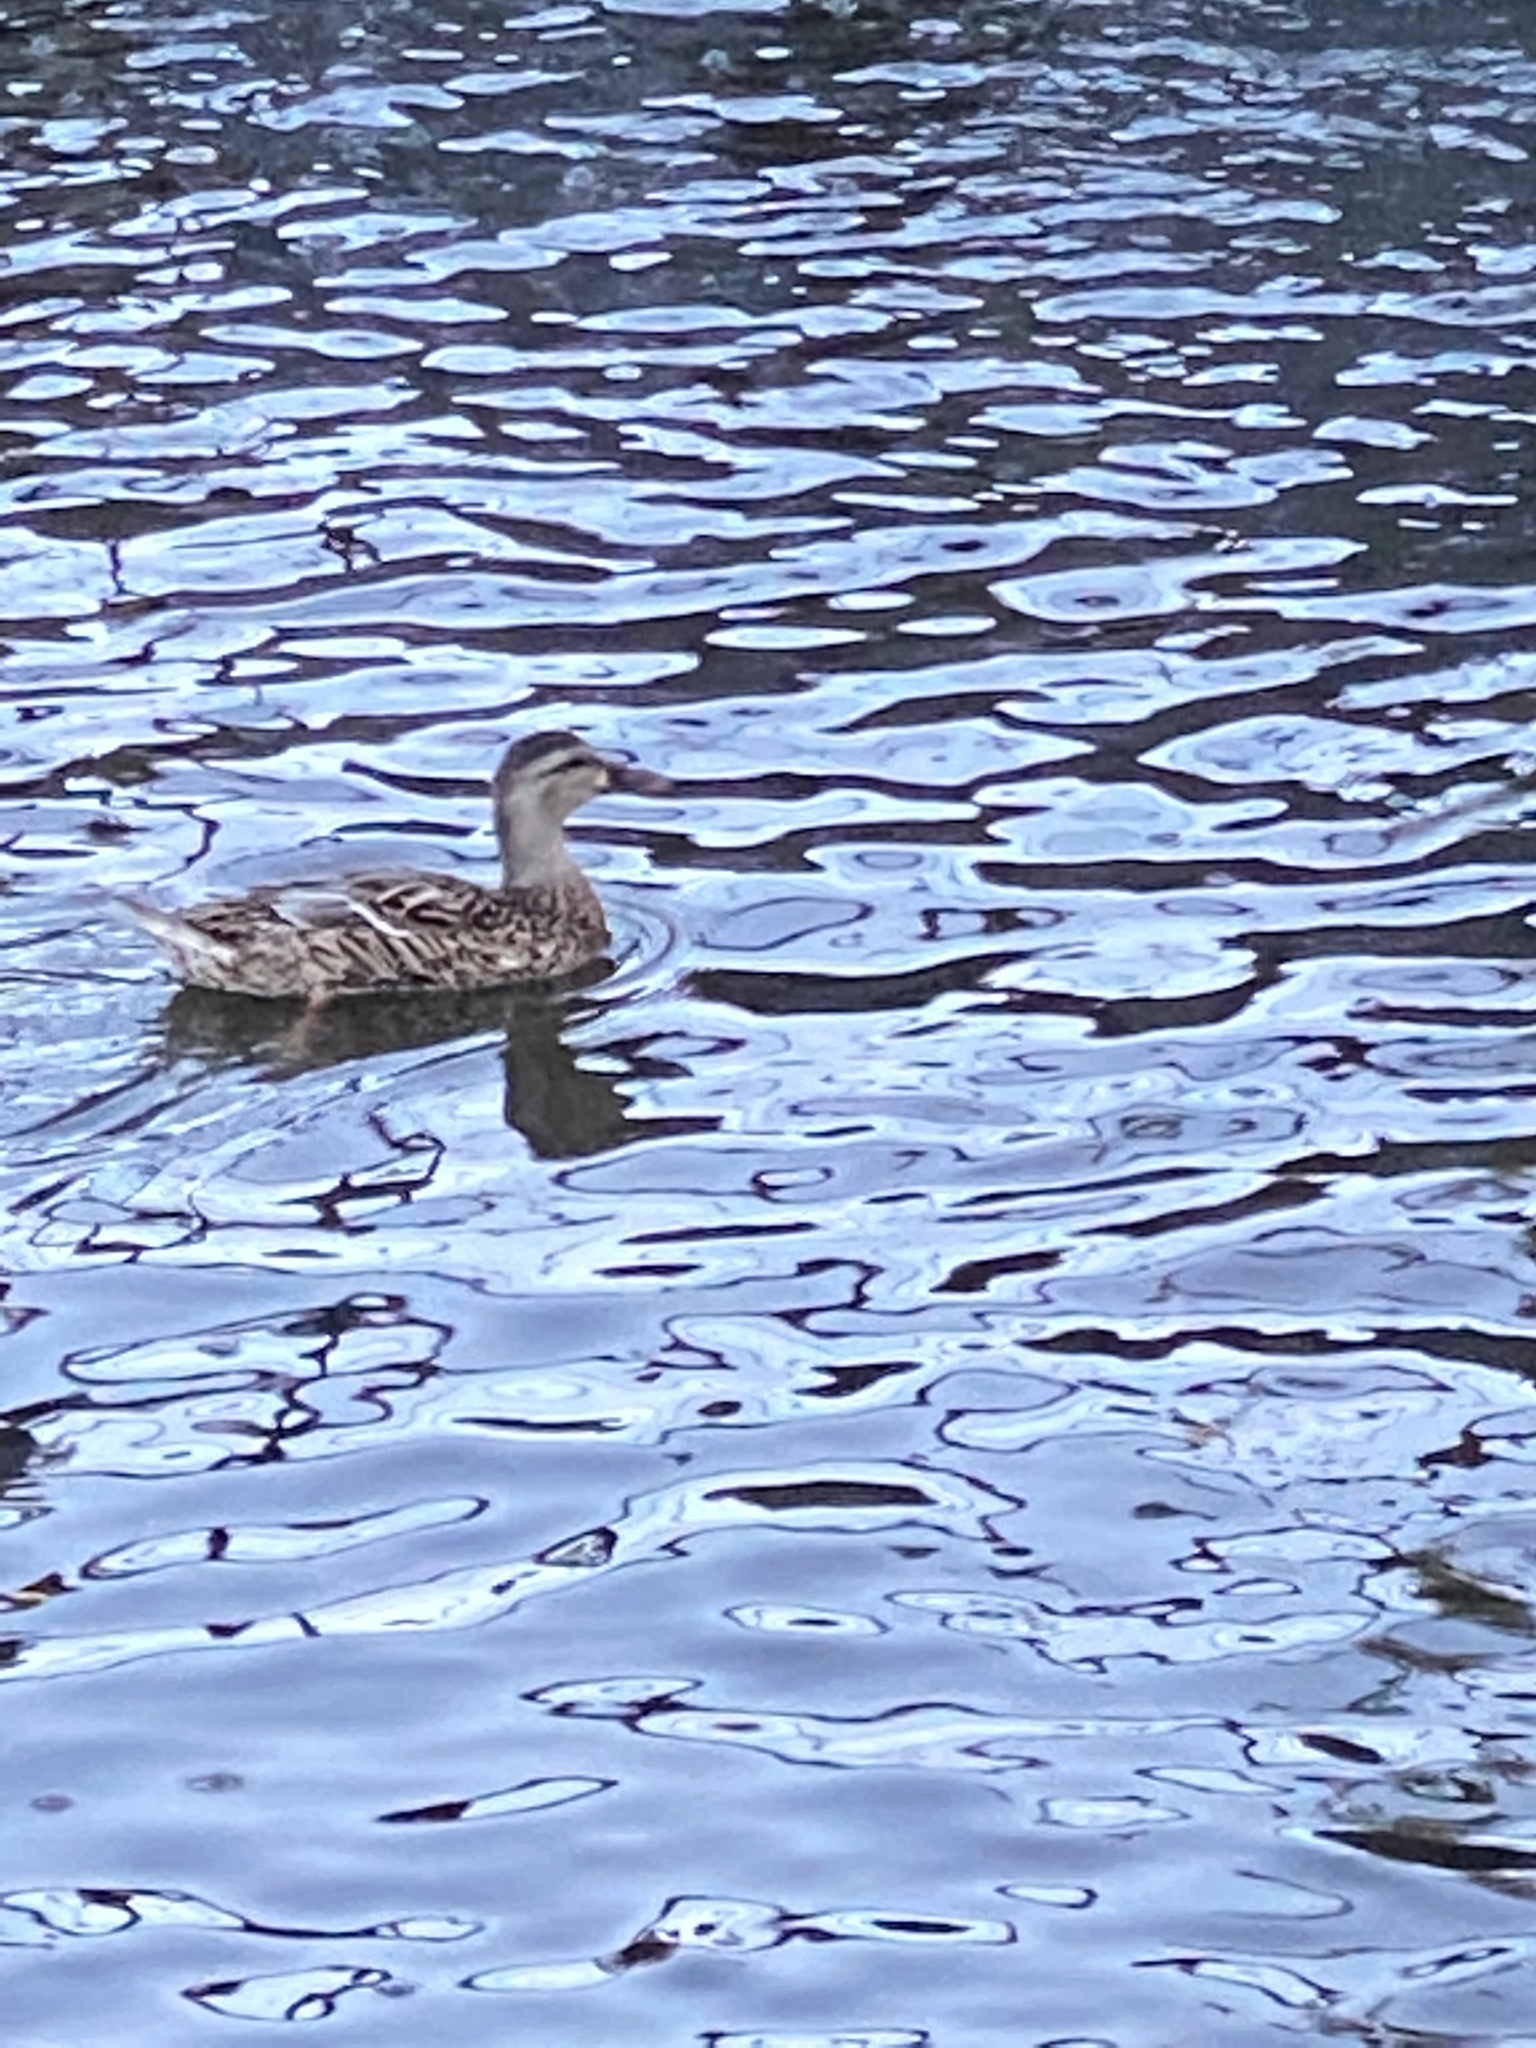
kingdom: Animalia
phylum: Chordata
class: Aves
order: Anseriformes
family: Anatidae
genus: Anas
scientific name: Anas platyrhynchos
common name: Mallard
